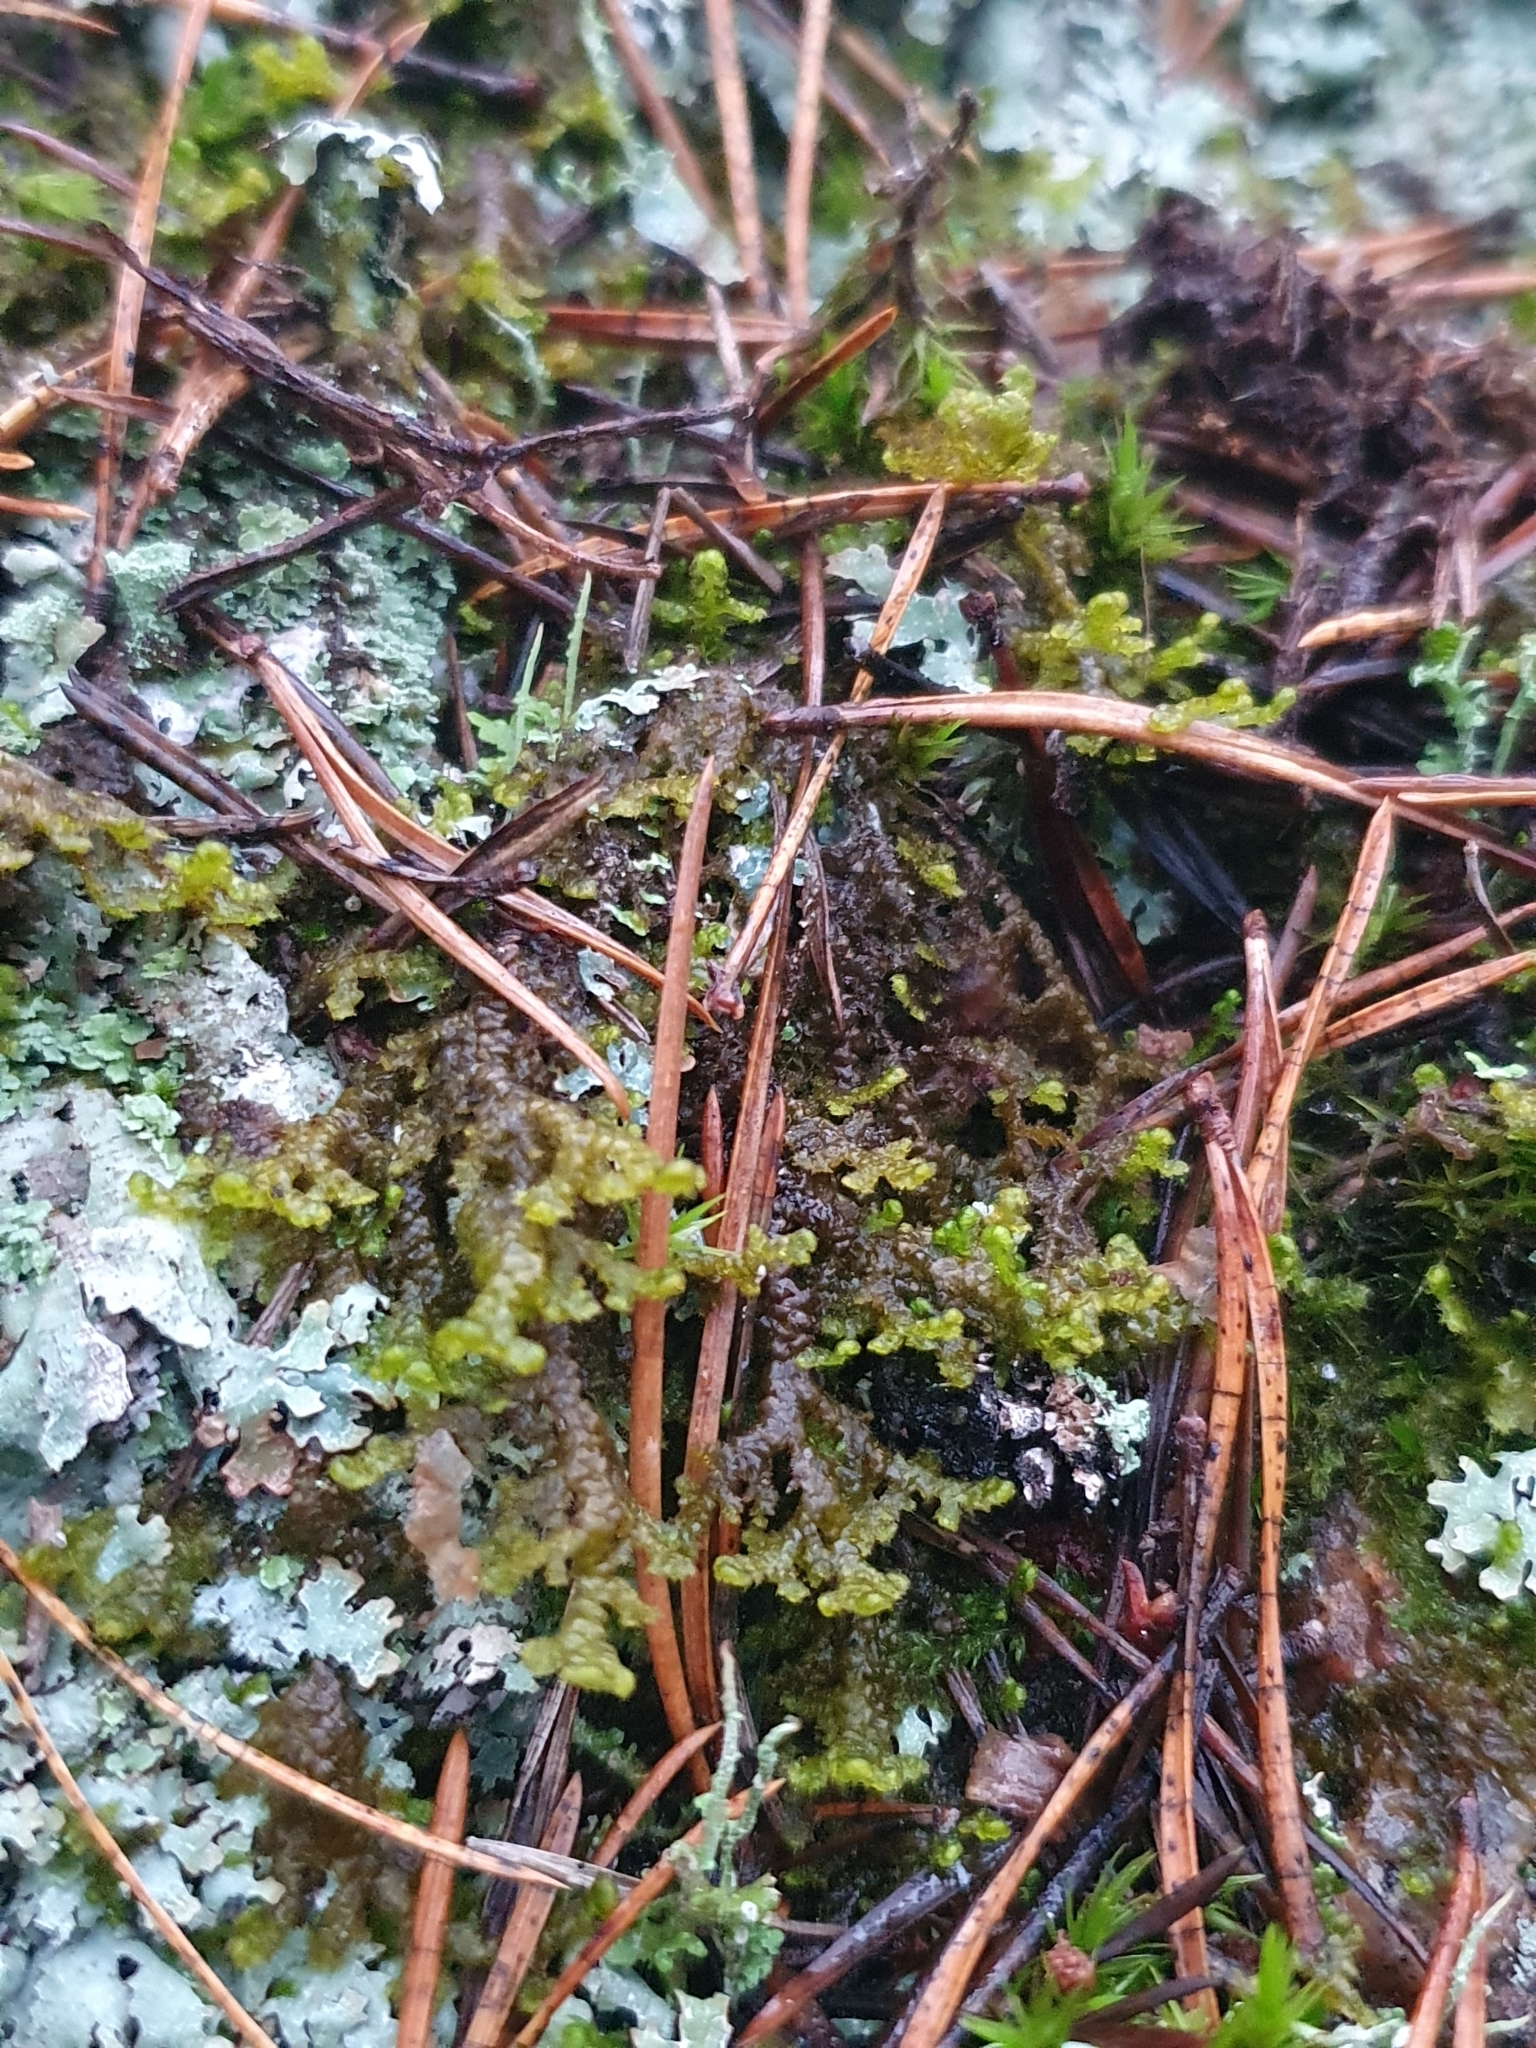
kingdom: Plantae
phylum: Marchantiophyta
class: Jungermanniopsida
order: Ptilidiales
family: Ptilidiaceae
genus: Ptilidium
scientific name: Ptilidium ciliare
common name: Ciliate fringewort
